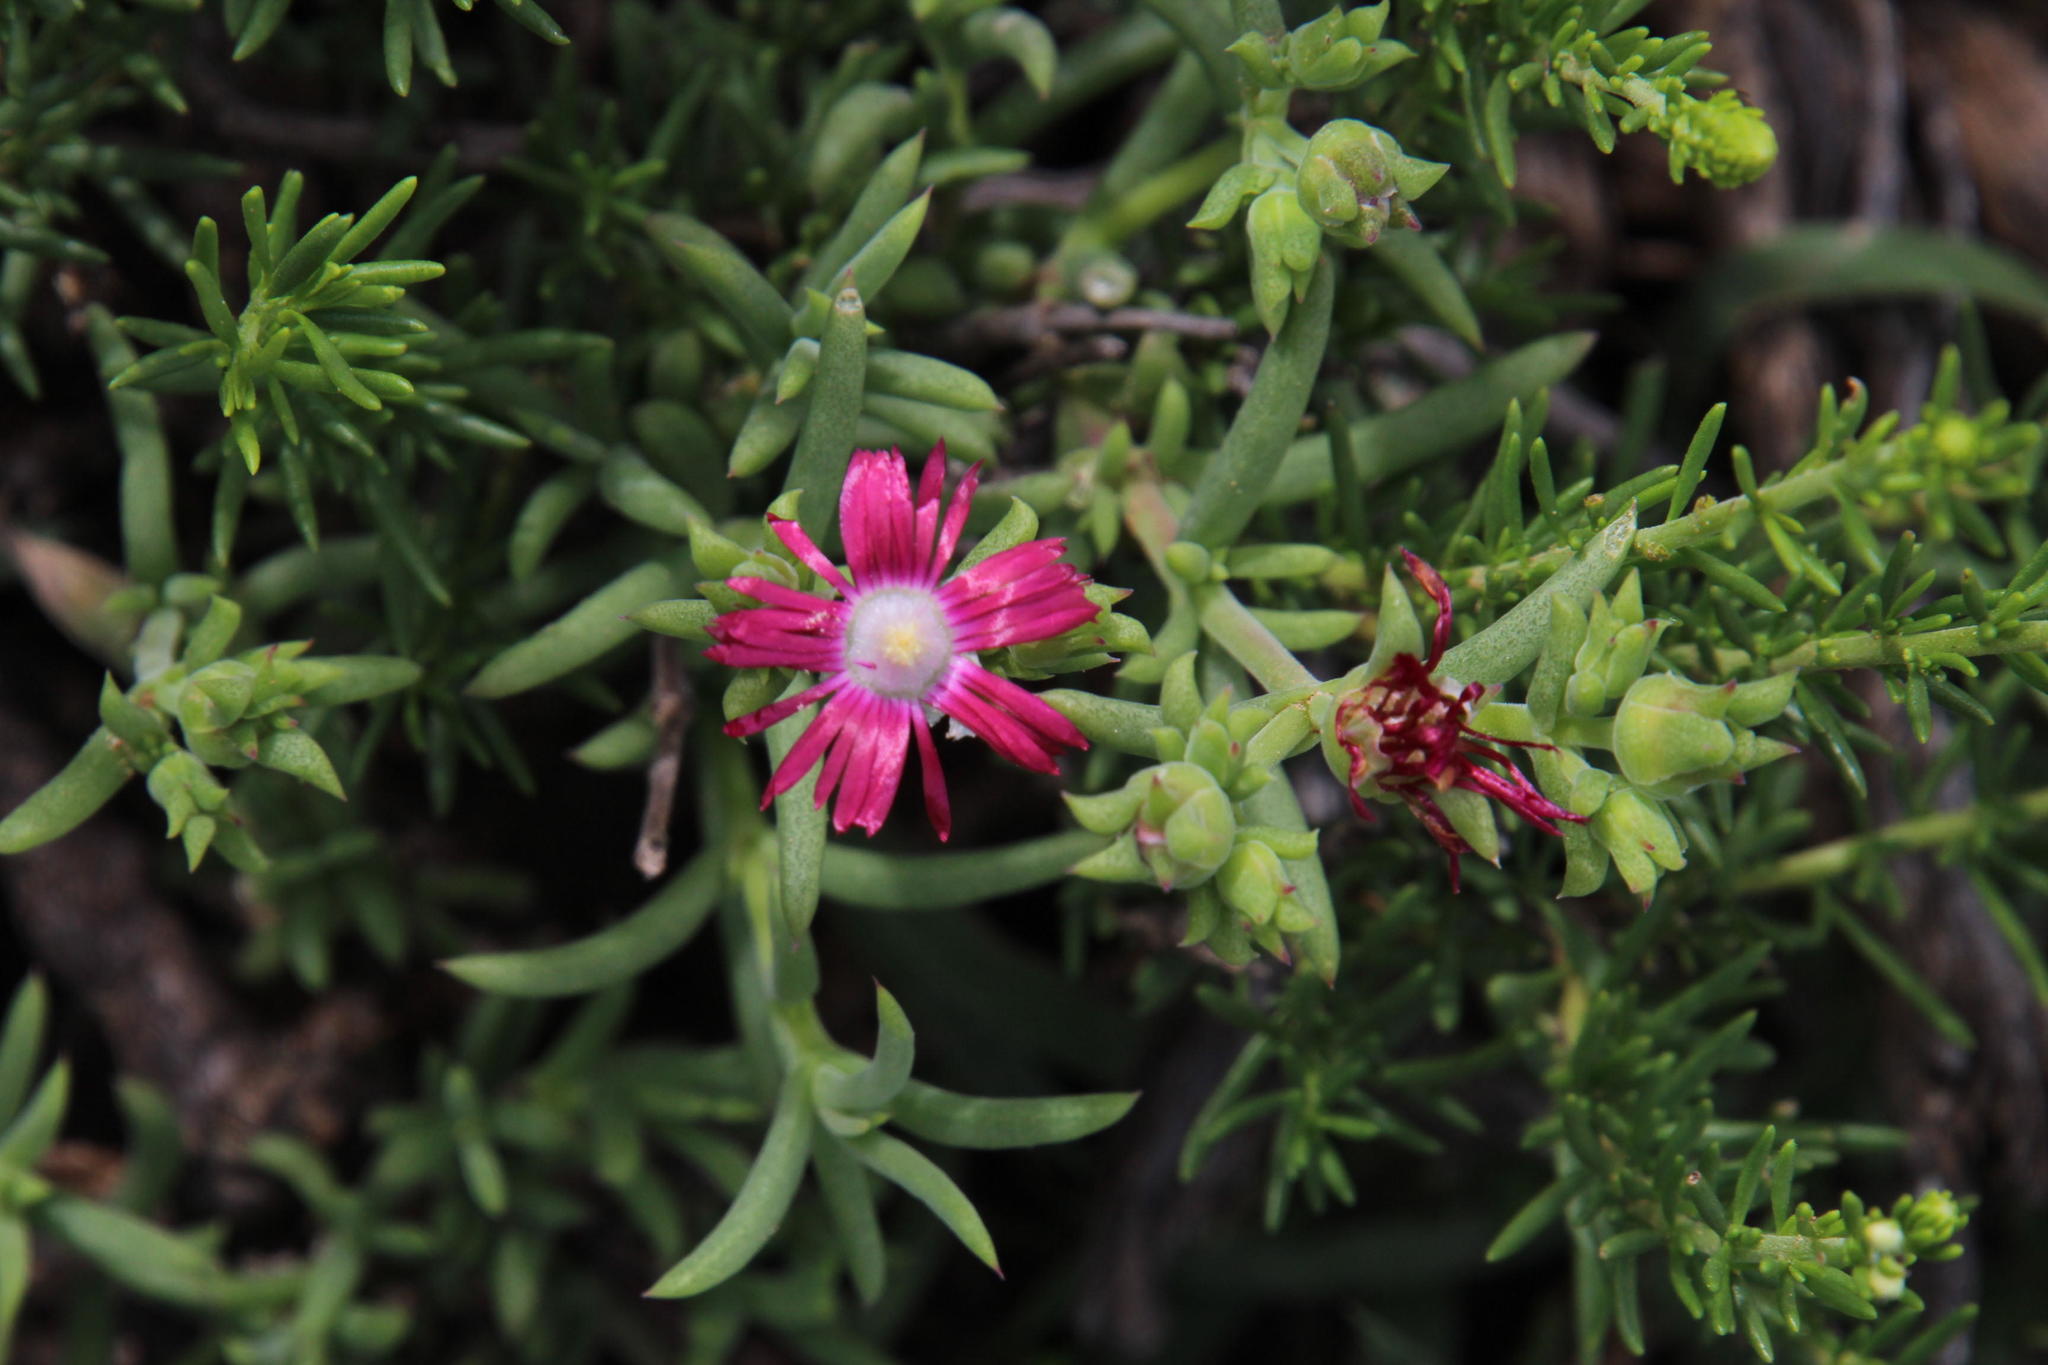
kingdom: Plantae
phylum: Tracheophyta
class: Magnoliopsida
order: Caryophyllales
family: Aizoaceae
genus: Delosperma
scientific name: Delosperma multiflorum
